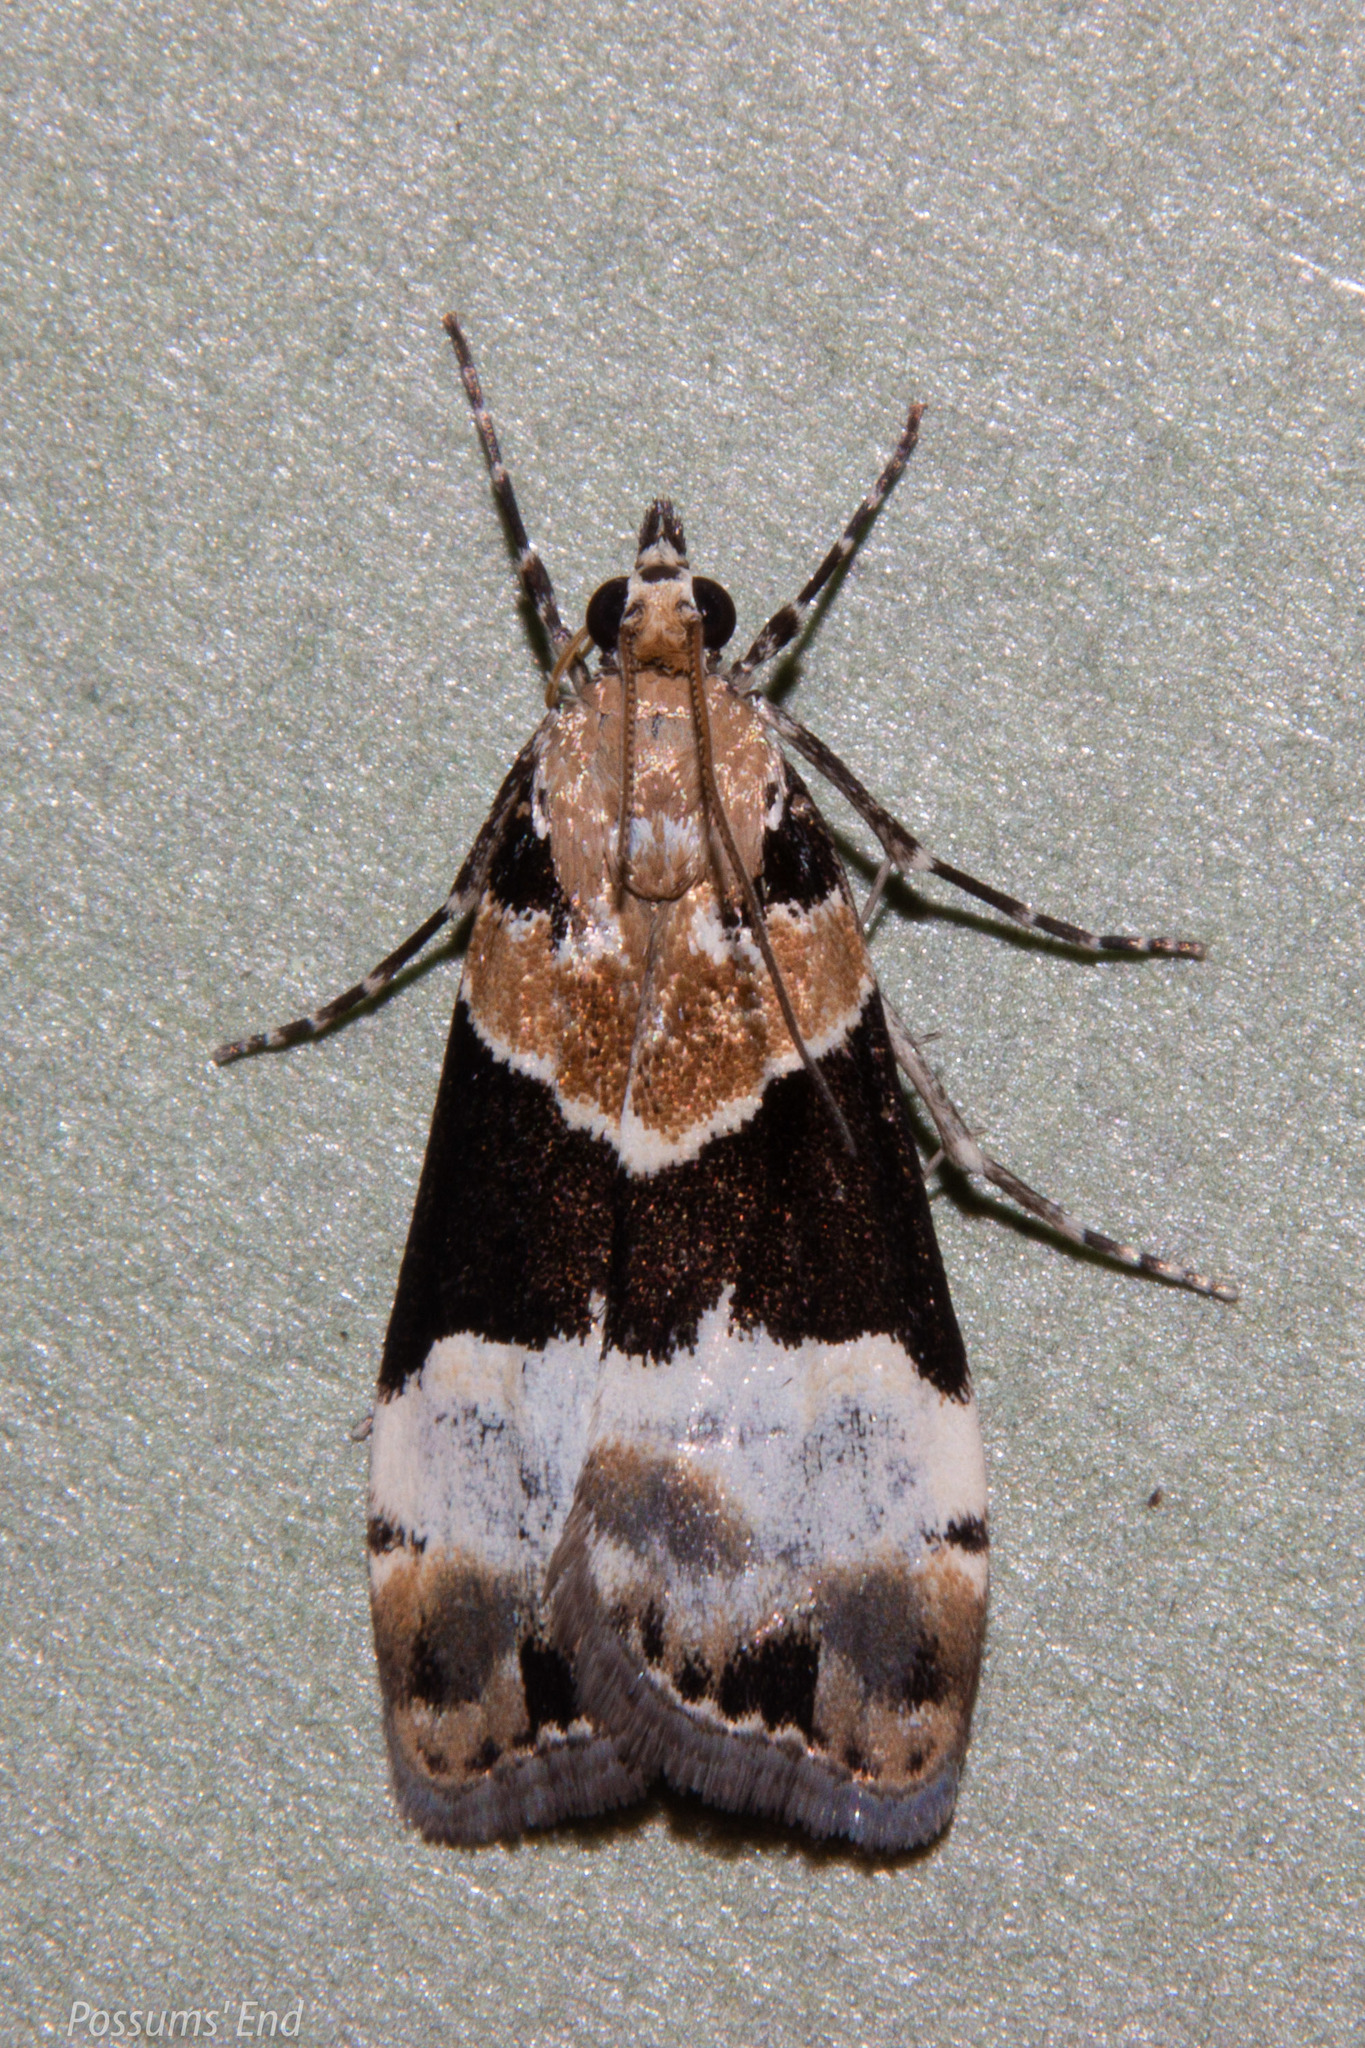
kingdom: Animalia
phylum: Arthropoda
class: Insecta
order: Lepidoptera
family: Crambidae
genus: Eudonia
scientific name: Eudonia aspidota
